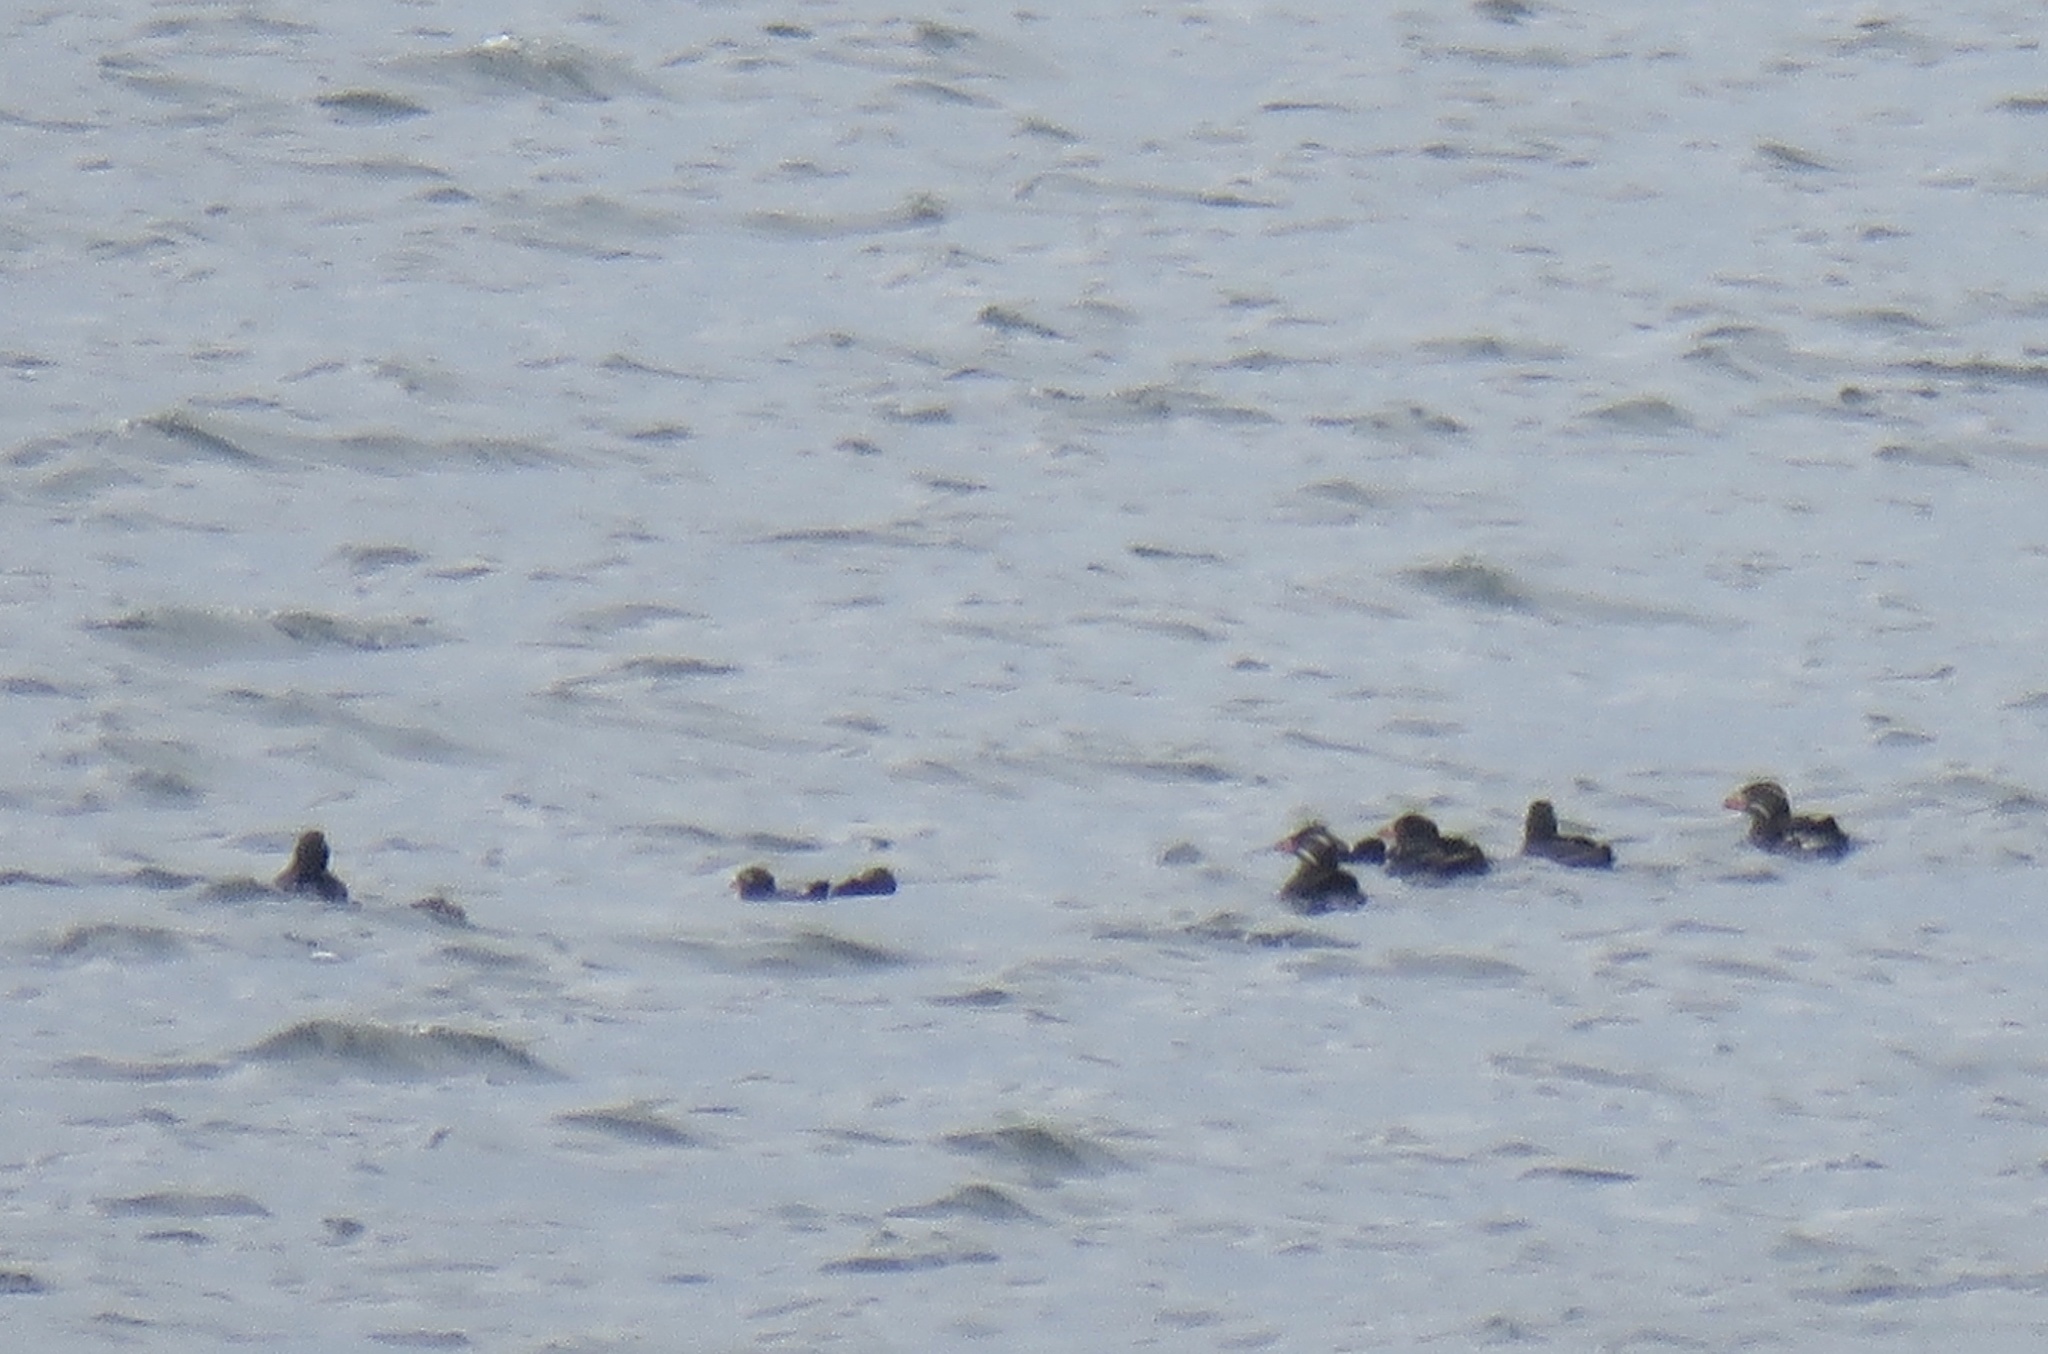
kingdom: Animalia
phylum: Chordata
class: Aves
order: Charadriiformes
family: Alcidae
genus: Cerorhinca
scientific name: Cerorhinca monocerata
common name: Rhinoceros auklet
